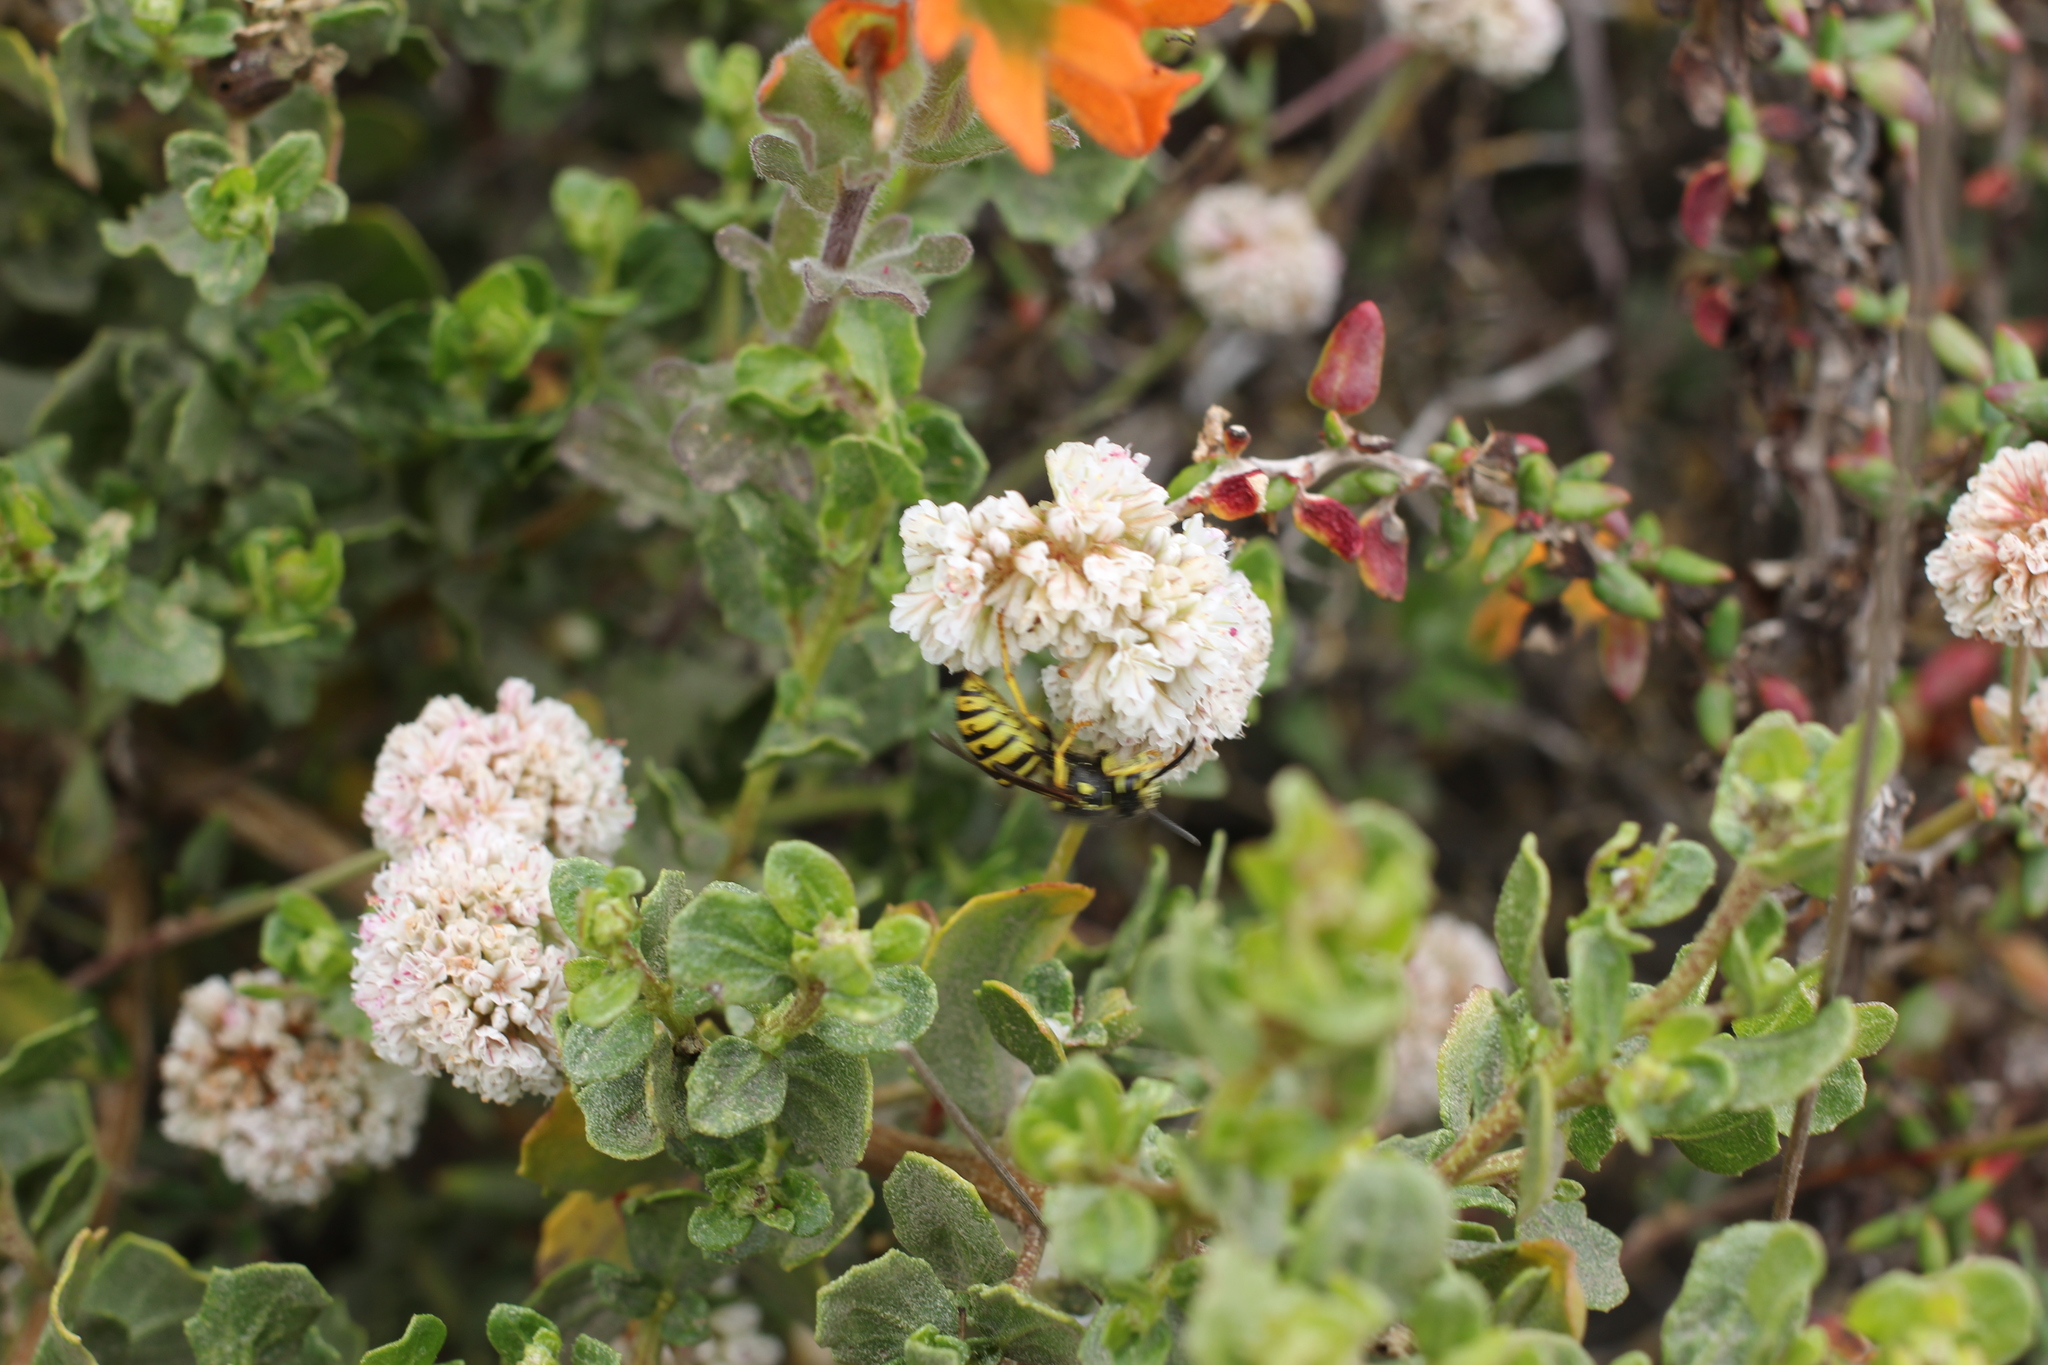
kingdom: Animalia
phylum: Arthropoda
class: Insecta
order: Hymenoptera
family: Vespidae
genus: Dolichovespula
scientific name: Dolichovespula arenaria
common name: Aerial yellowjacket
